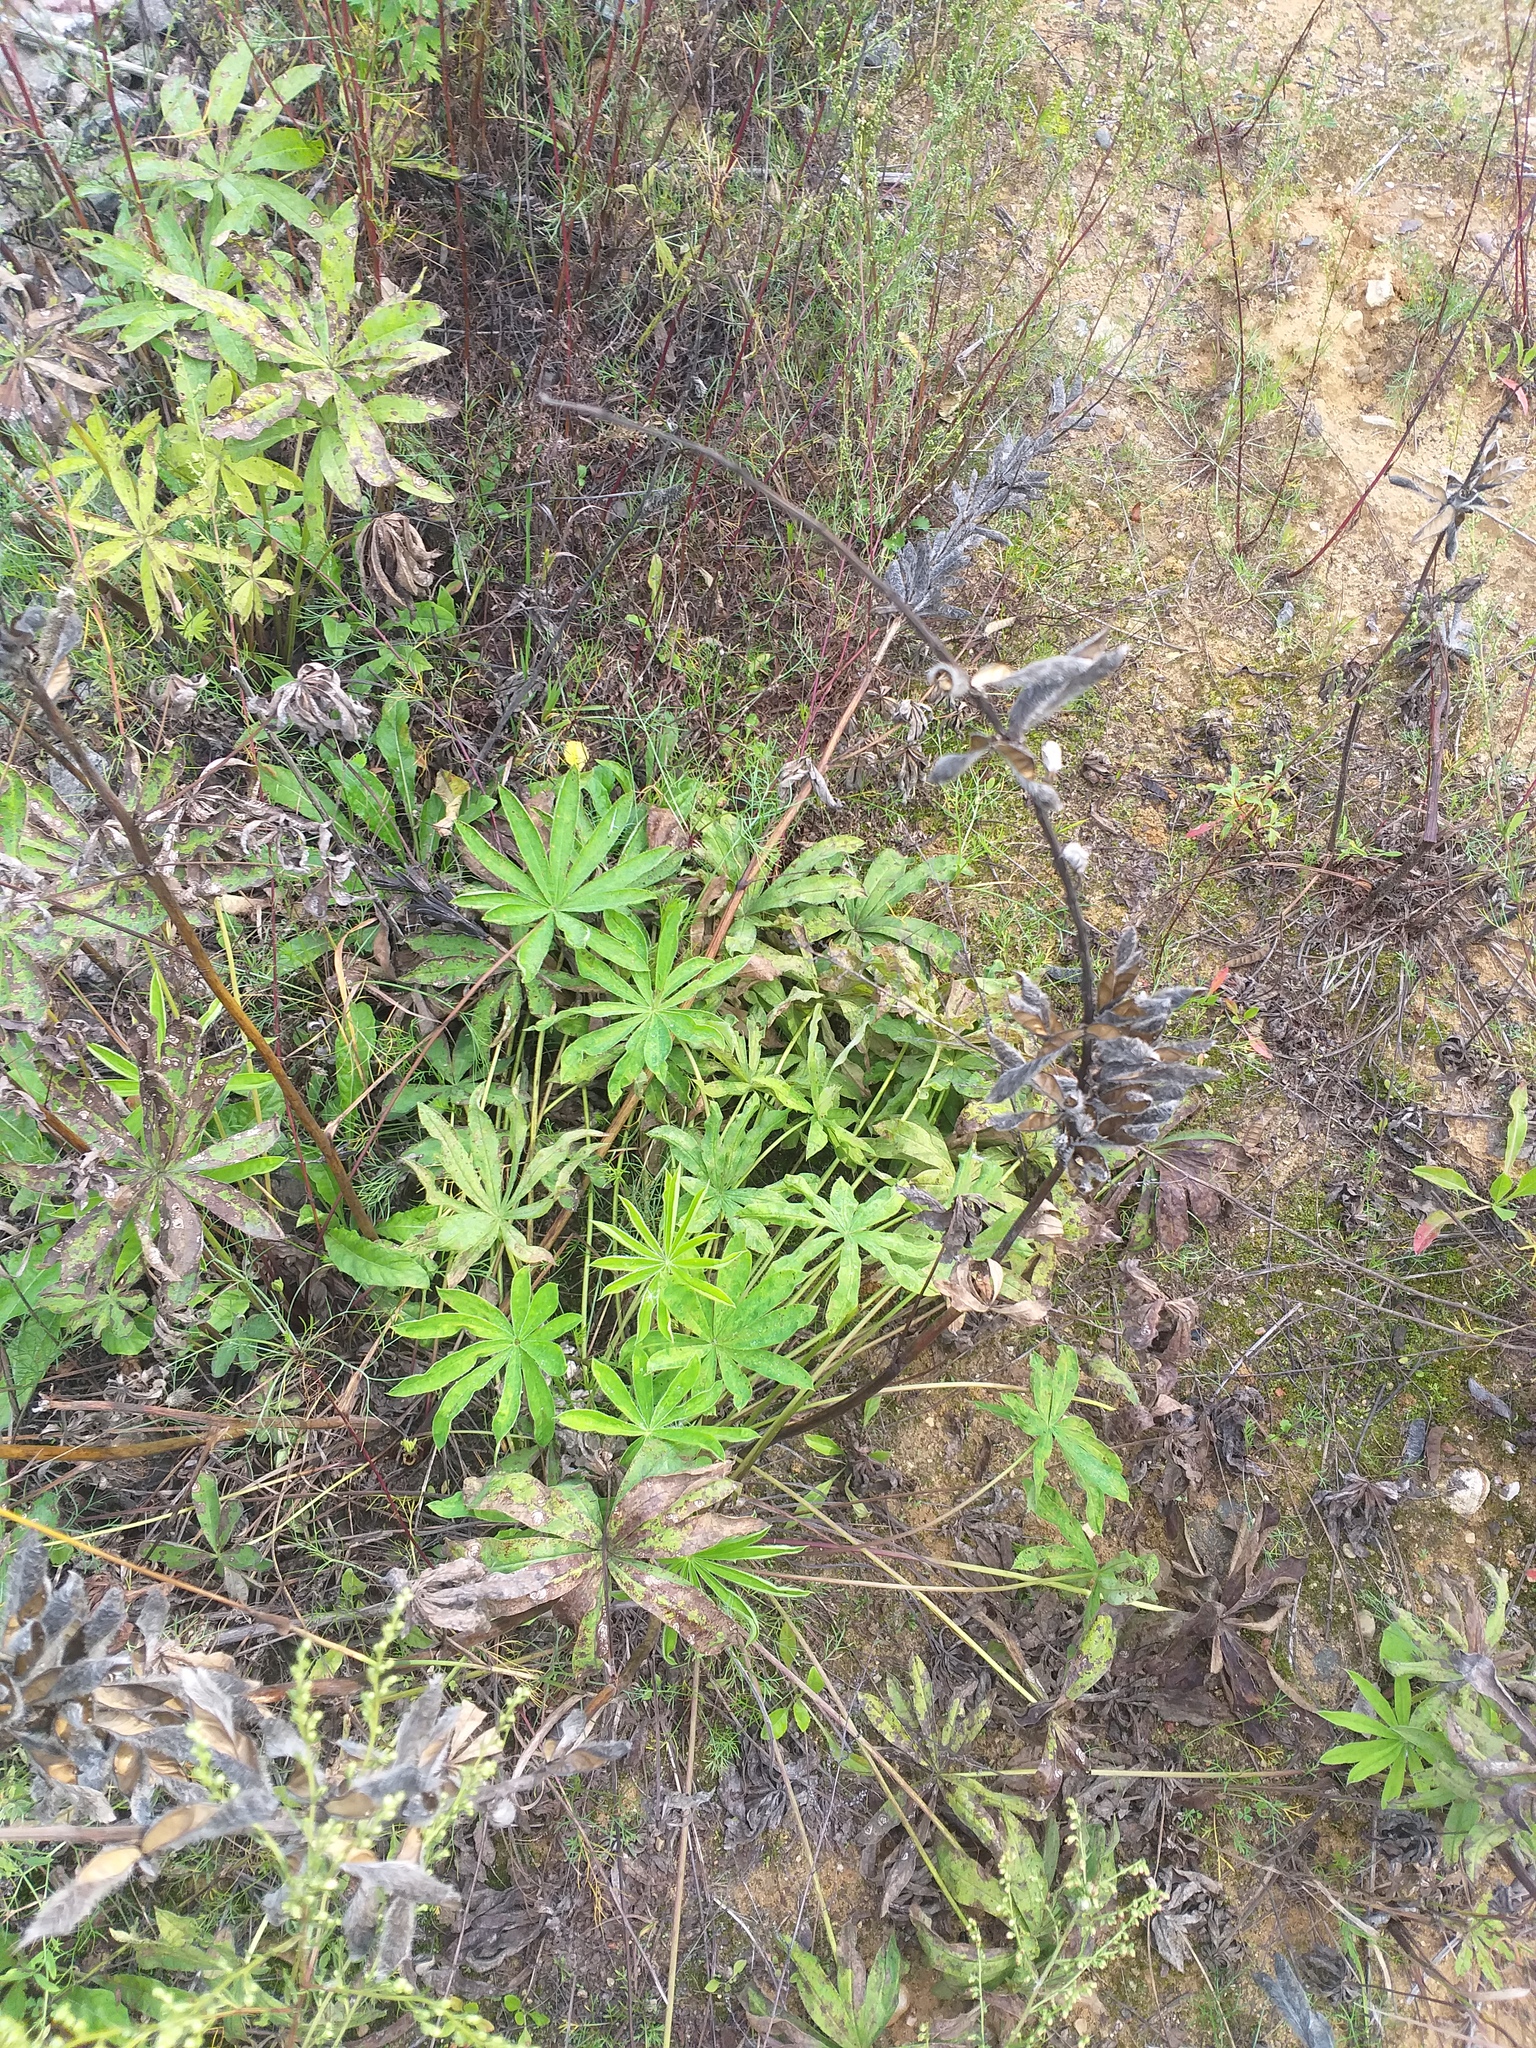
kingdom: Plantae
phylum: Tracheophyta
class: Magnoliopsida
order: Fabales
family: Fabaceae
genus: Lupinus
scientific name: Lupinus polyphyllus
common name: Garden lupin
